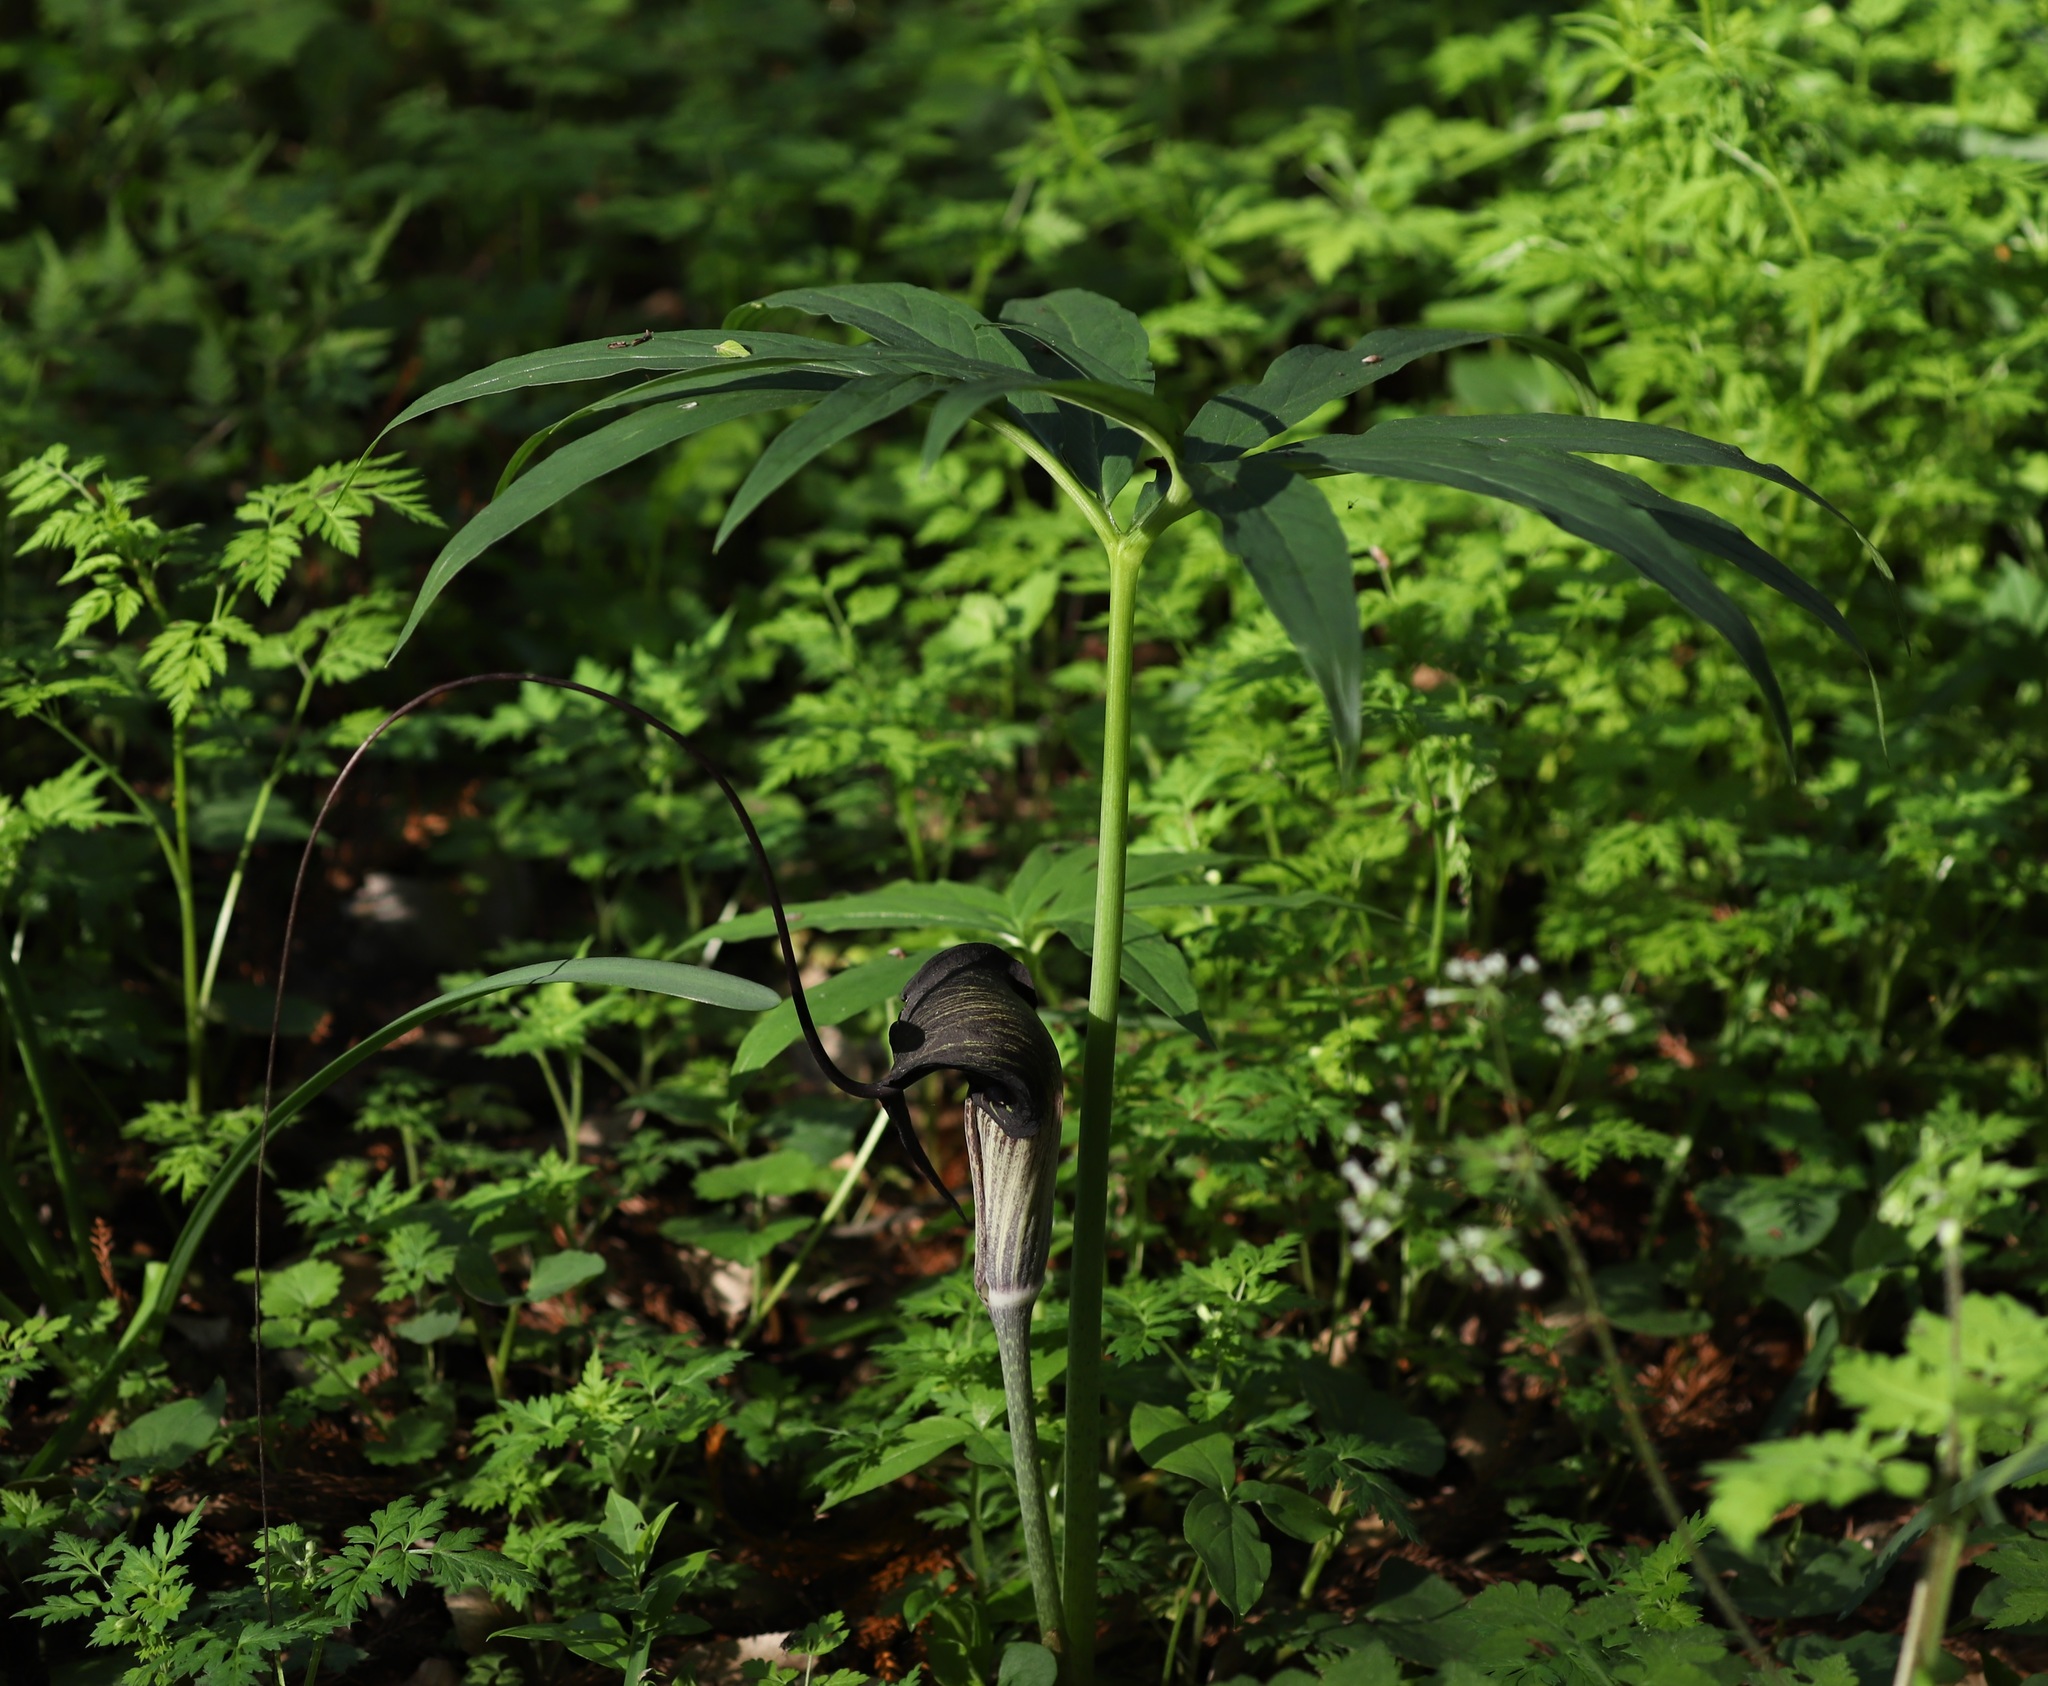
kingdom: Plantae
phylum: Tracheophyta
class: Liliopsida
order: Alismatales
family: Araceae
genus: Arisaema
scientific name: Arisaema thunbergii
